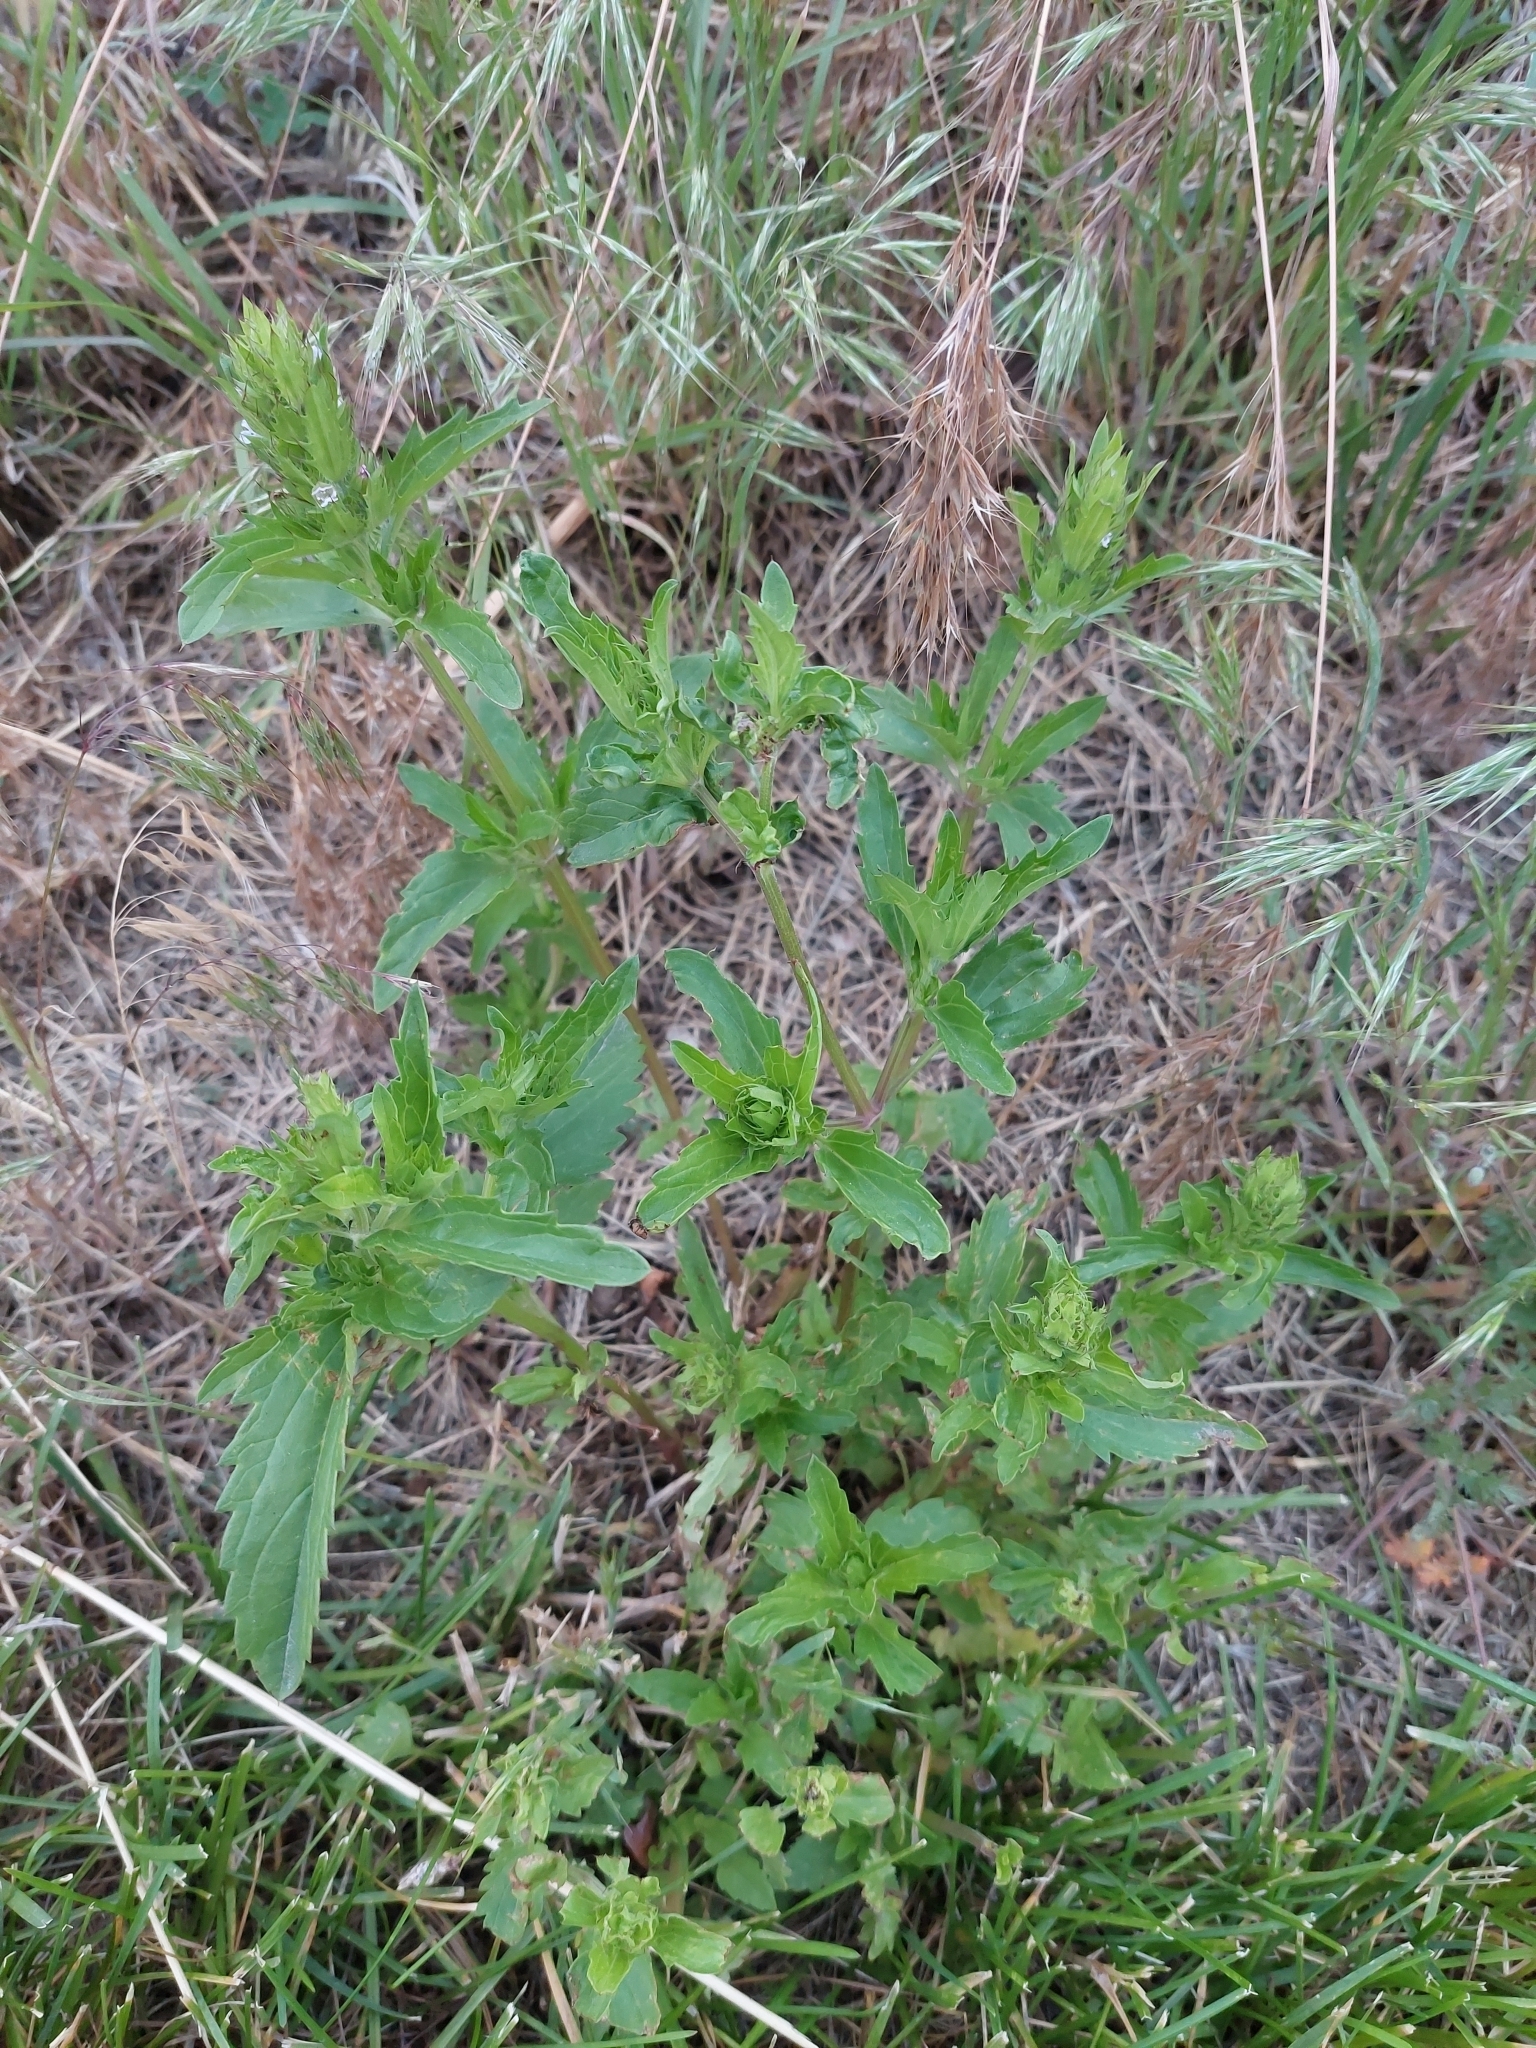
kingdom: Plantae
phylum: Tracheophyta
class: Magnoliopsida
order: Lamiales
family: Lamiaceae
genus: Dracocephalum
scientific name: Dracocephalum parviflorum
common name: American dragonhead
